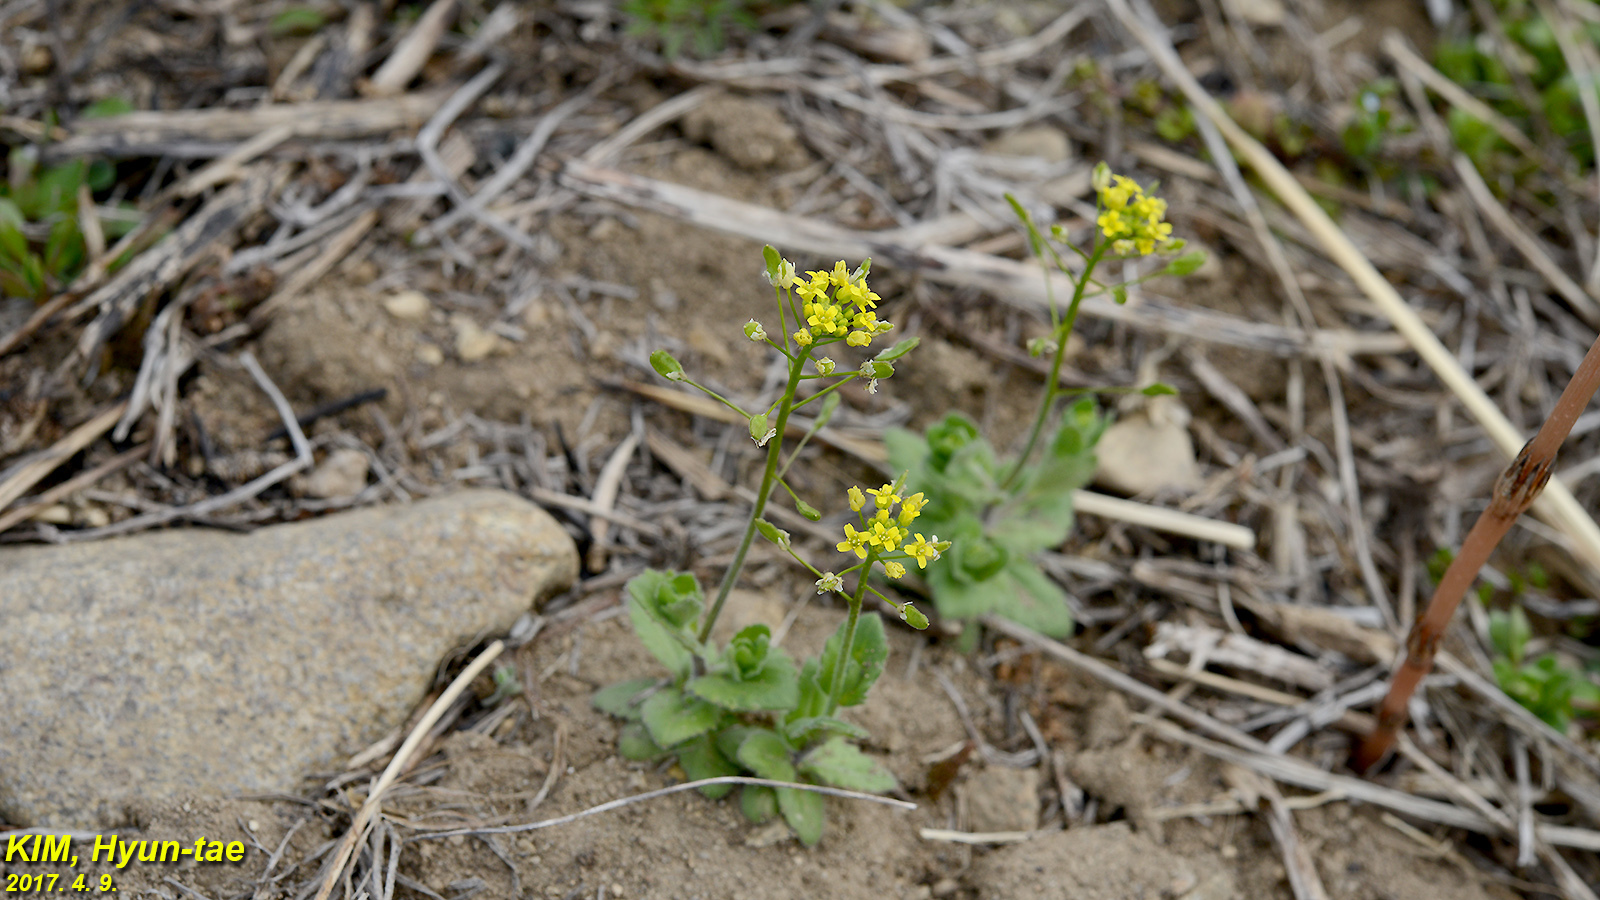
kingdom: Plantae
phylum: Tracheophyta
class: Magnoliopsida
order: Brassicales
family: Brassicaceae
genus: Draba
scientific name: Draba nemorosa
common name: Wood whitlow-grass
